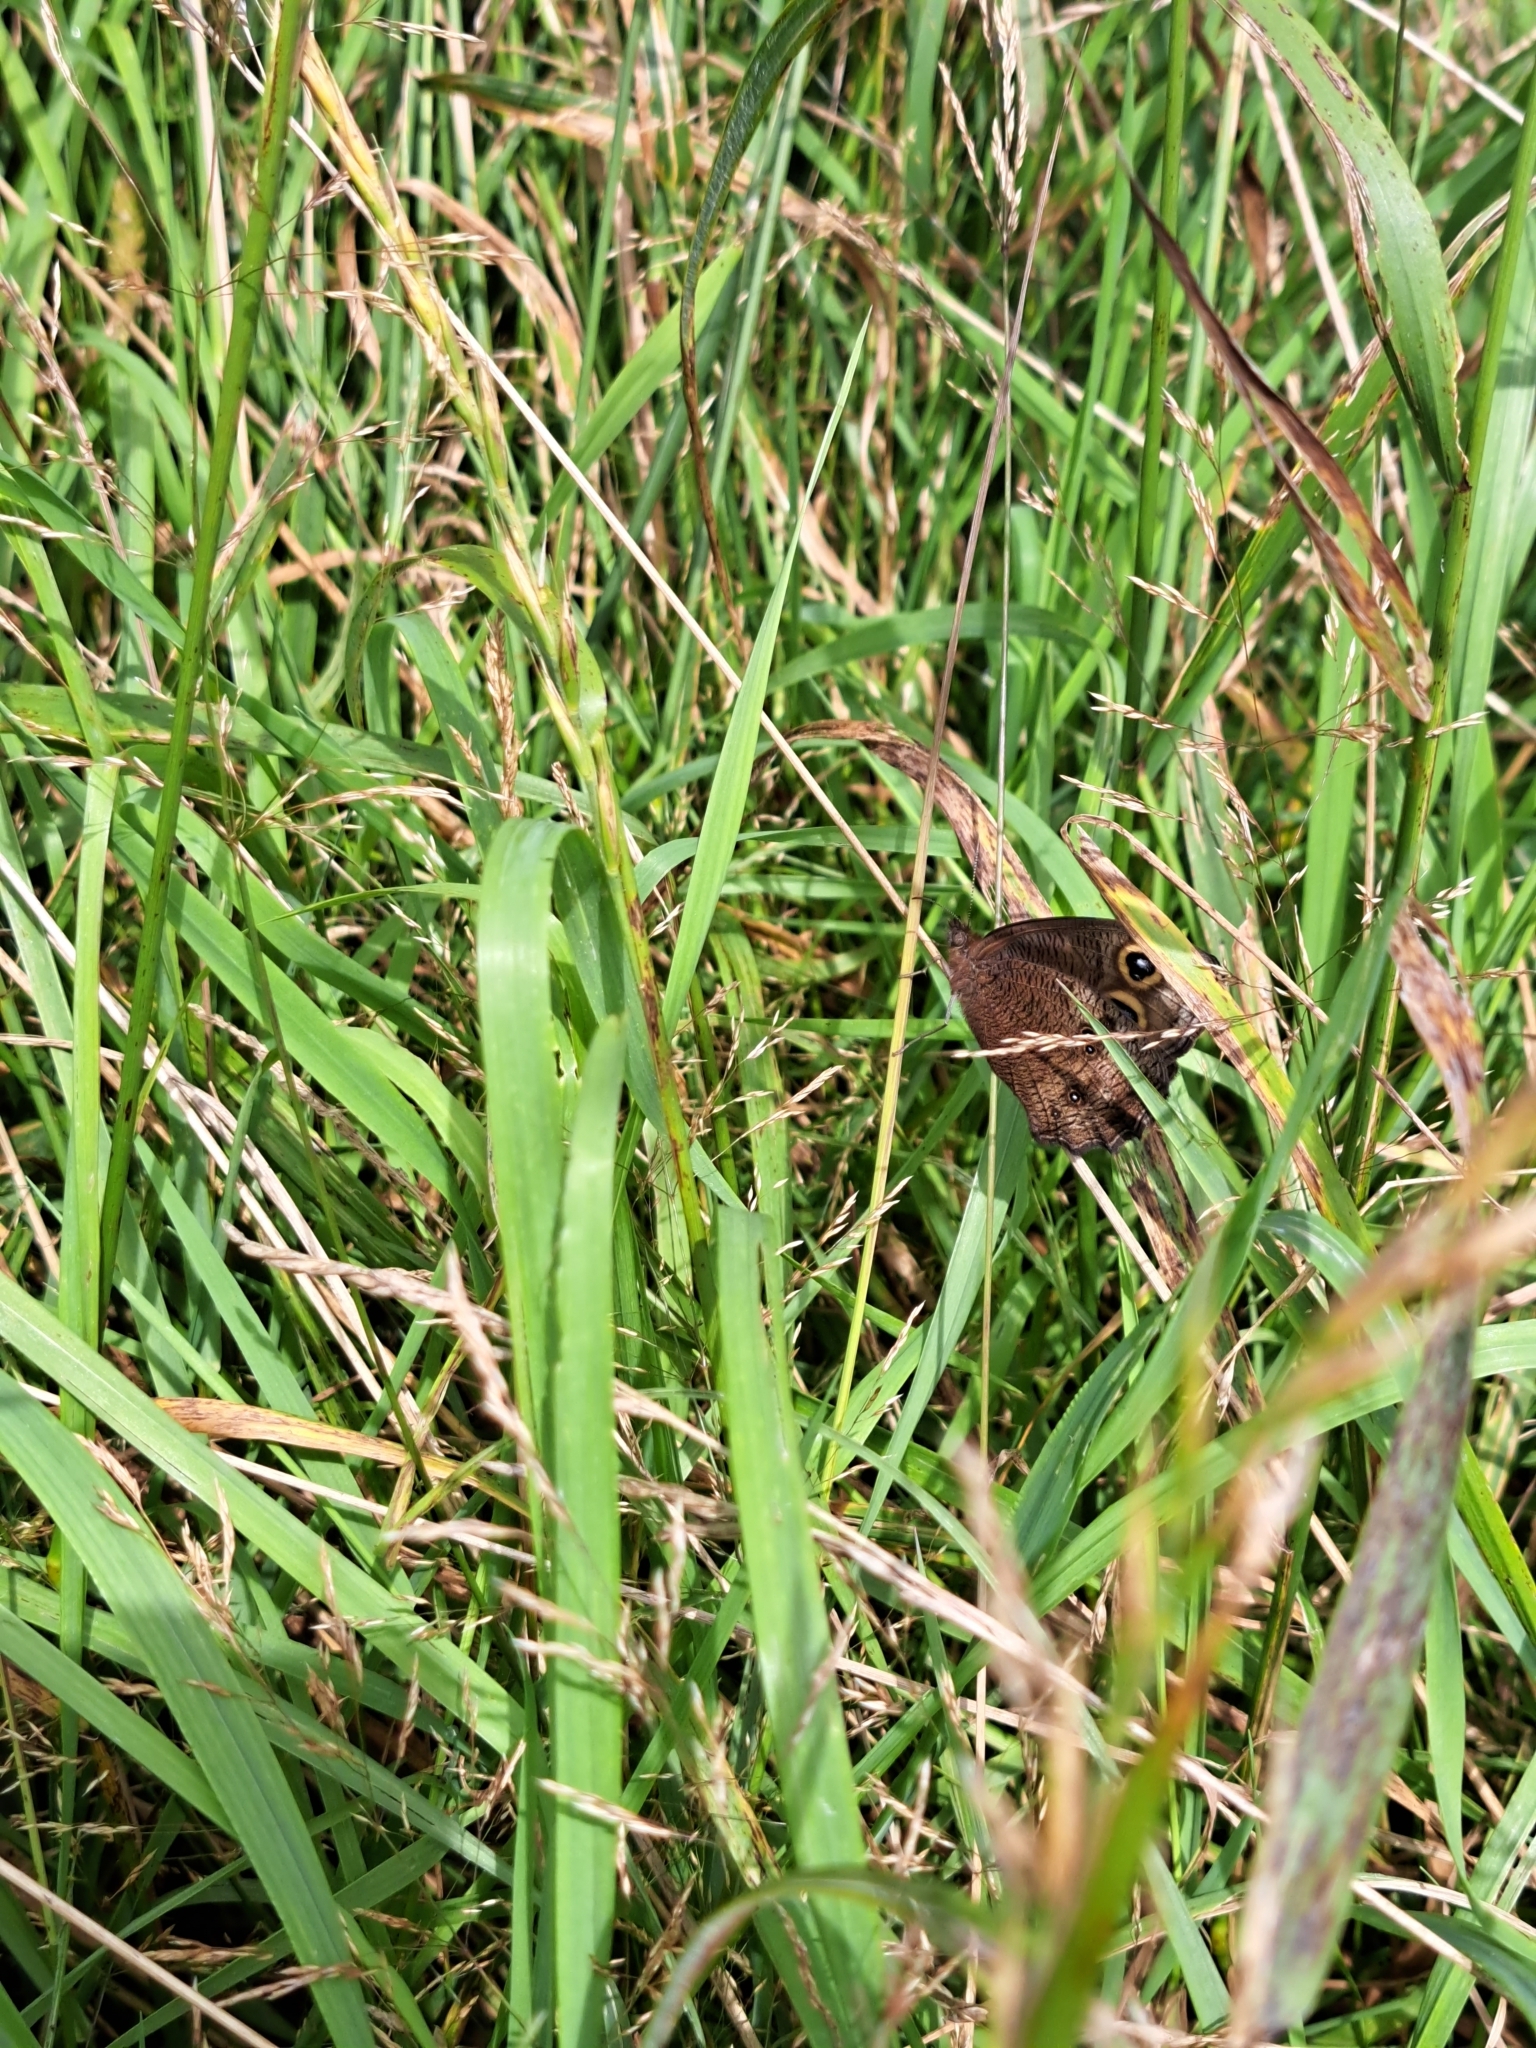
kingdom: Animalia
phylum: Arthropoda
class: Insecta
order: Lepidoptera
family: Nymphalidae
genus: Cercyonis
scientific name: Cercyonis pegala
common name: Common wood-nymph
